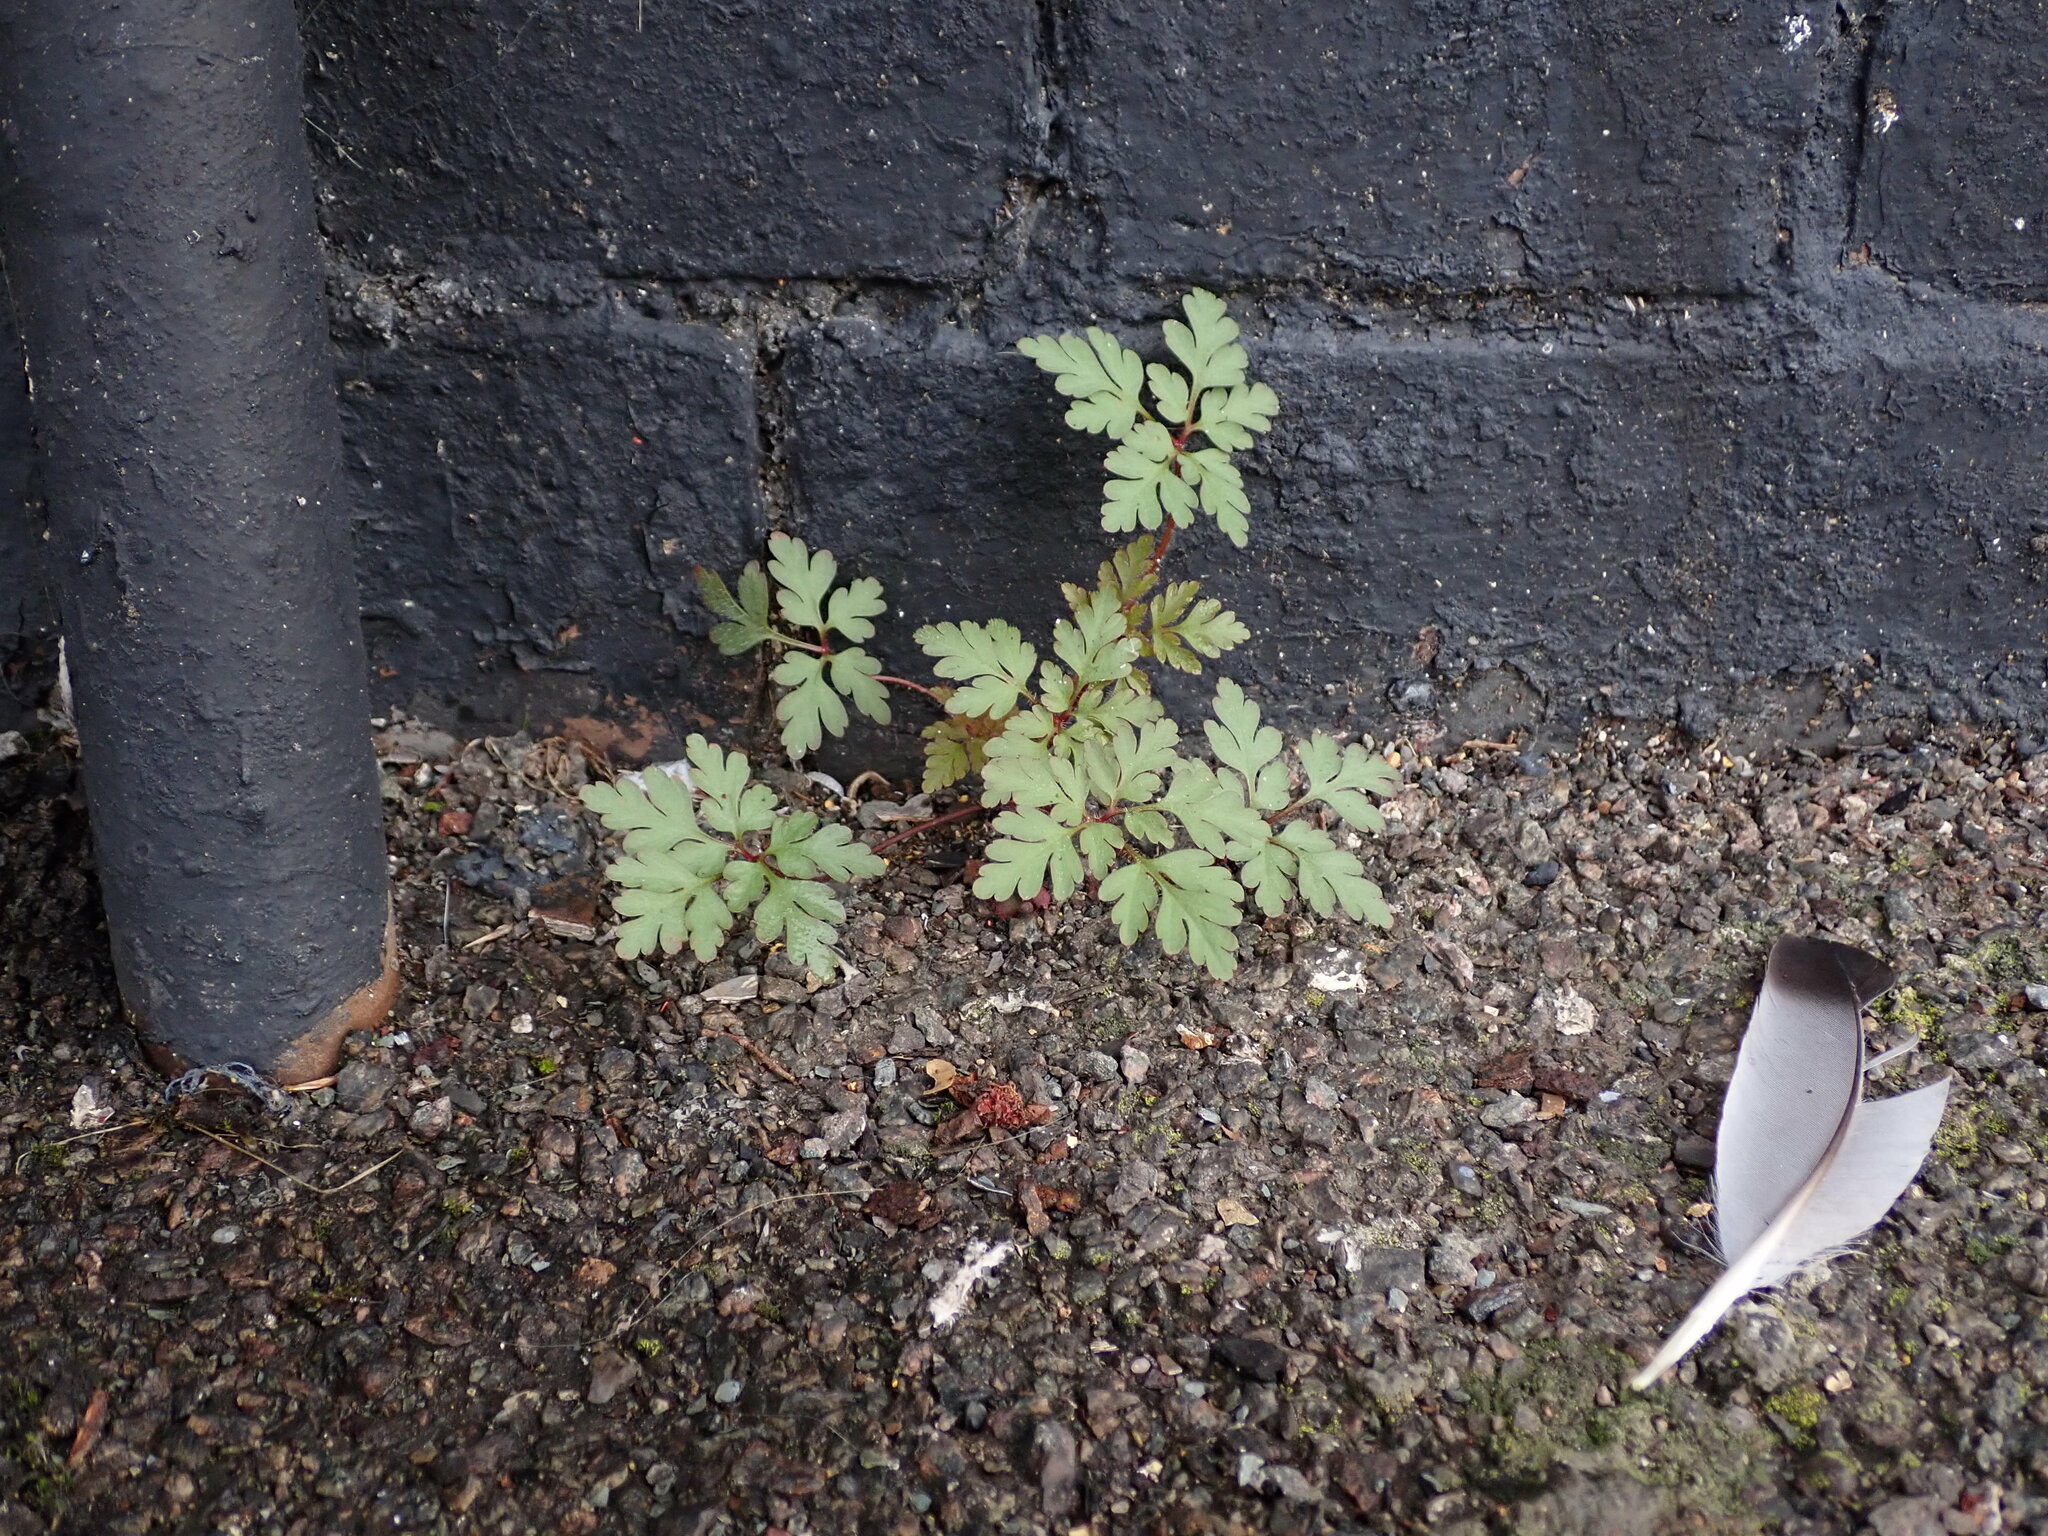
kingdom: Plantae
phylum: Tracheophyta
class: Magnoliopsida
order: Geraniales
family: Geraniaceae
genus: Geranium
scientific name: Geranium robertianum
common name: Herb-robert
